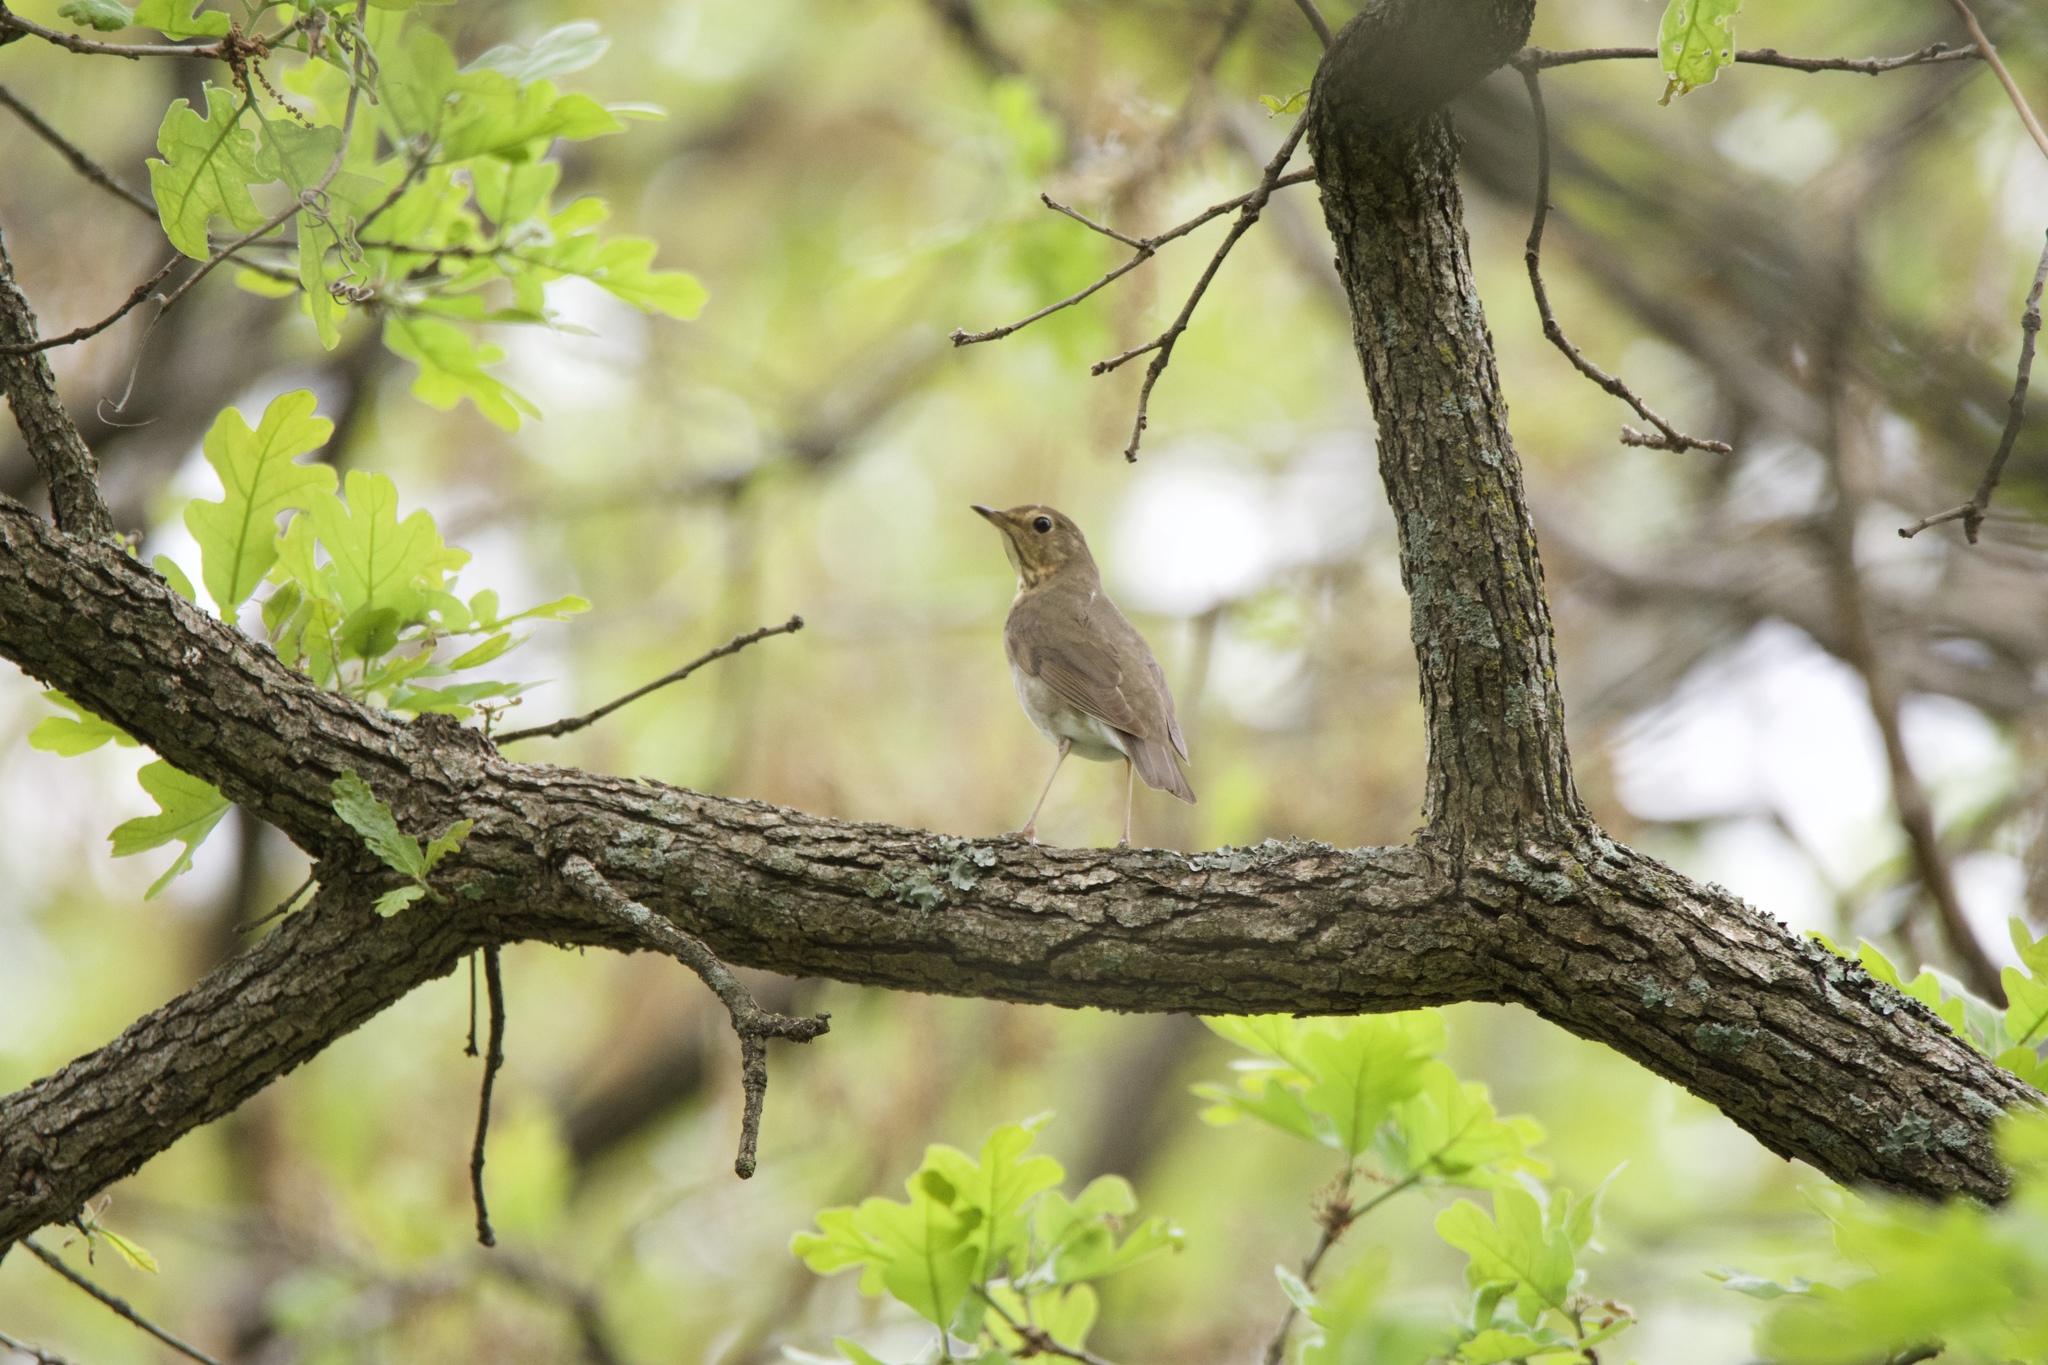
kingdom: Animalia
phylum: Chordata
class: Aves
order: Passeriformes
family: Turdidae
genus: Catharus
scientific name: Catharus ustulatus
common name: Swainson's thrush
